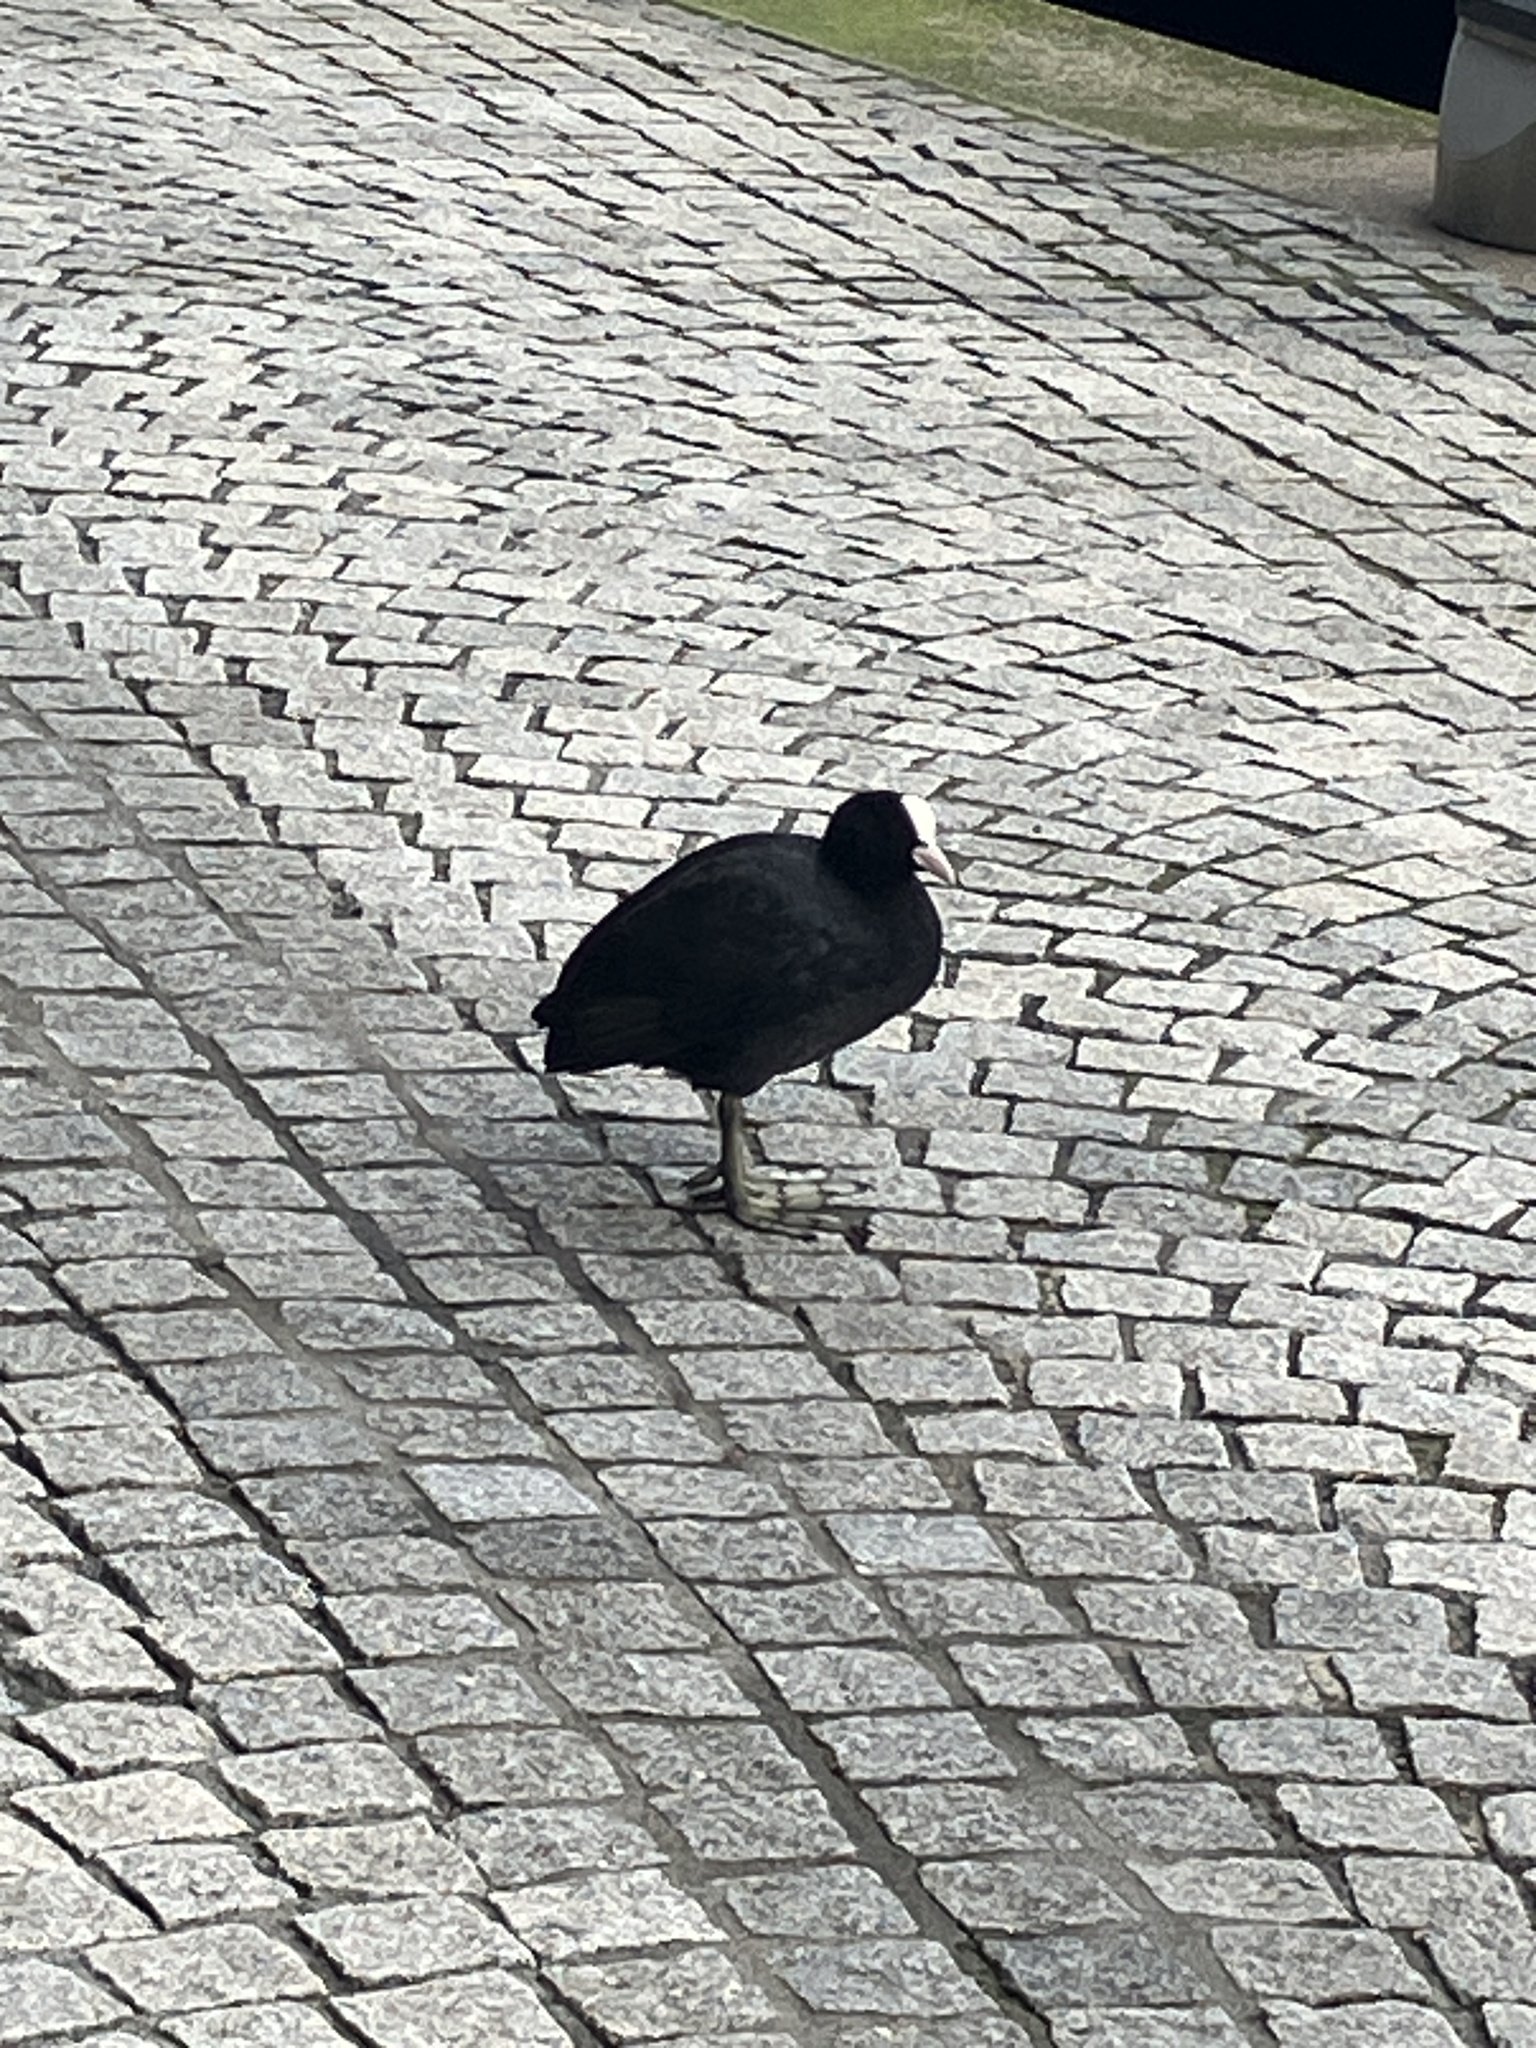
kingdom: Animalia
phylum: Chordata
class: Aves
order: Gruiformes
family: Rallidae
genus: Fulica
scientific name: Fulica atra
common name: Eurasian coot
